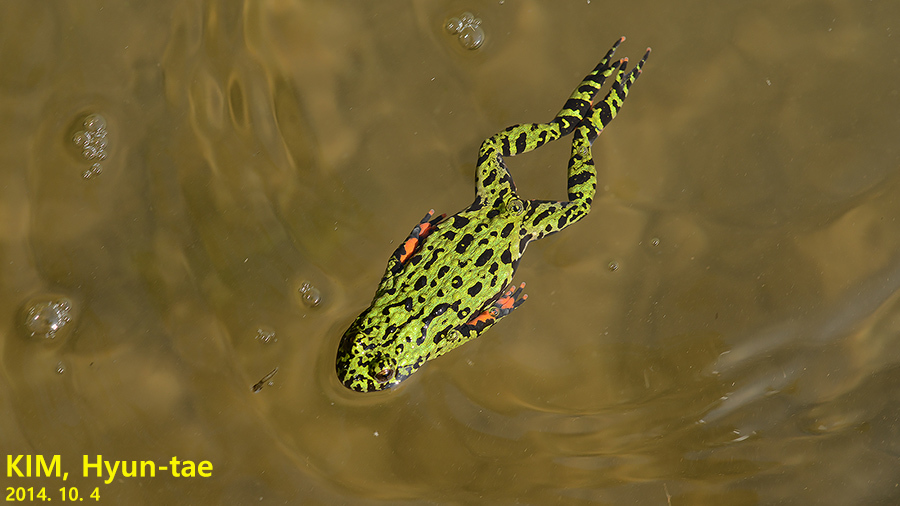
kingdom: Animalia
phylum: Chordata
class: Amphibia
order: Anura
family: Bombinatoridae
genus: Bombina
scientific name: Bombina orientalis
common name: Oriental firebelly toad
